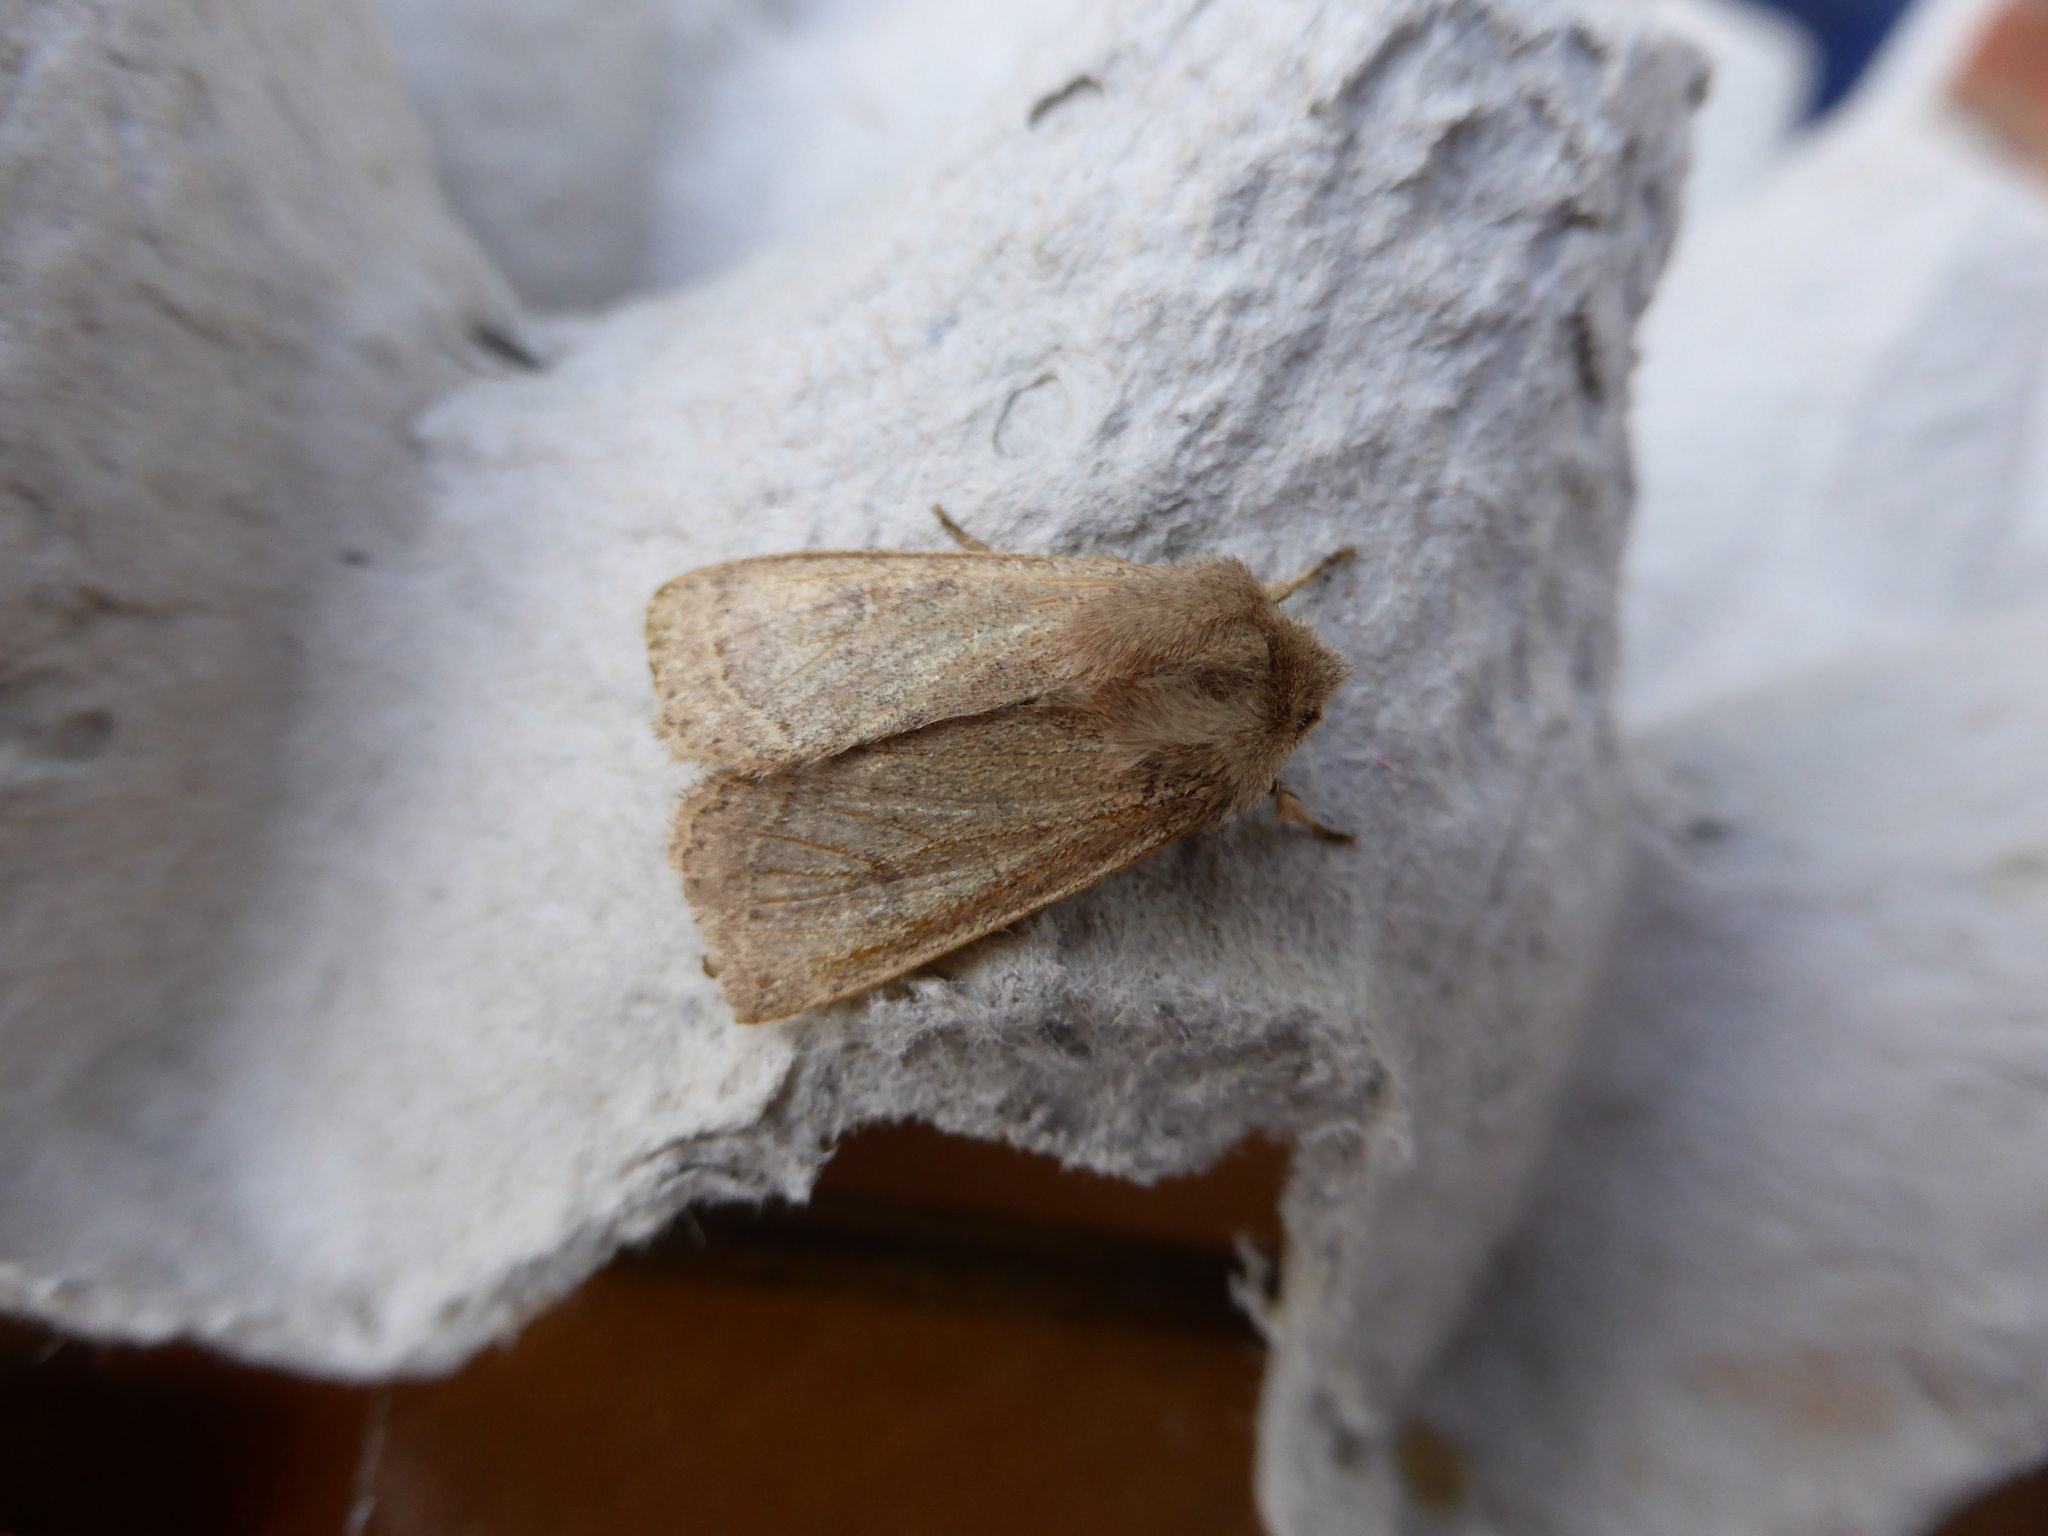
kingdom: Animalia
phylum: Arthropoda
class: Insecta
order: Lepidoptera
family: Noctuidae
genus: Orthosia
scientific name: Orthosia cerasi
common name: Common quaker
